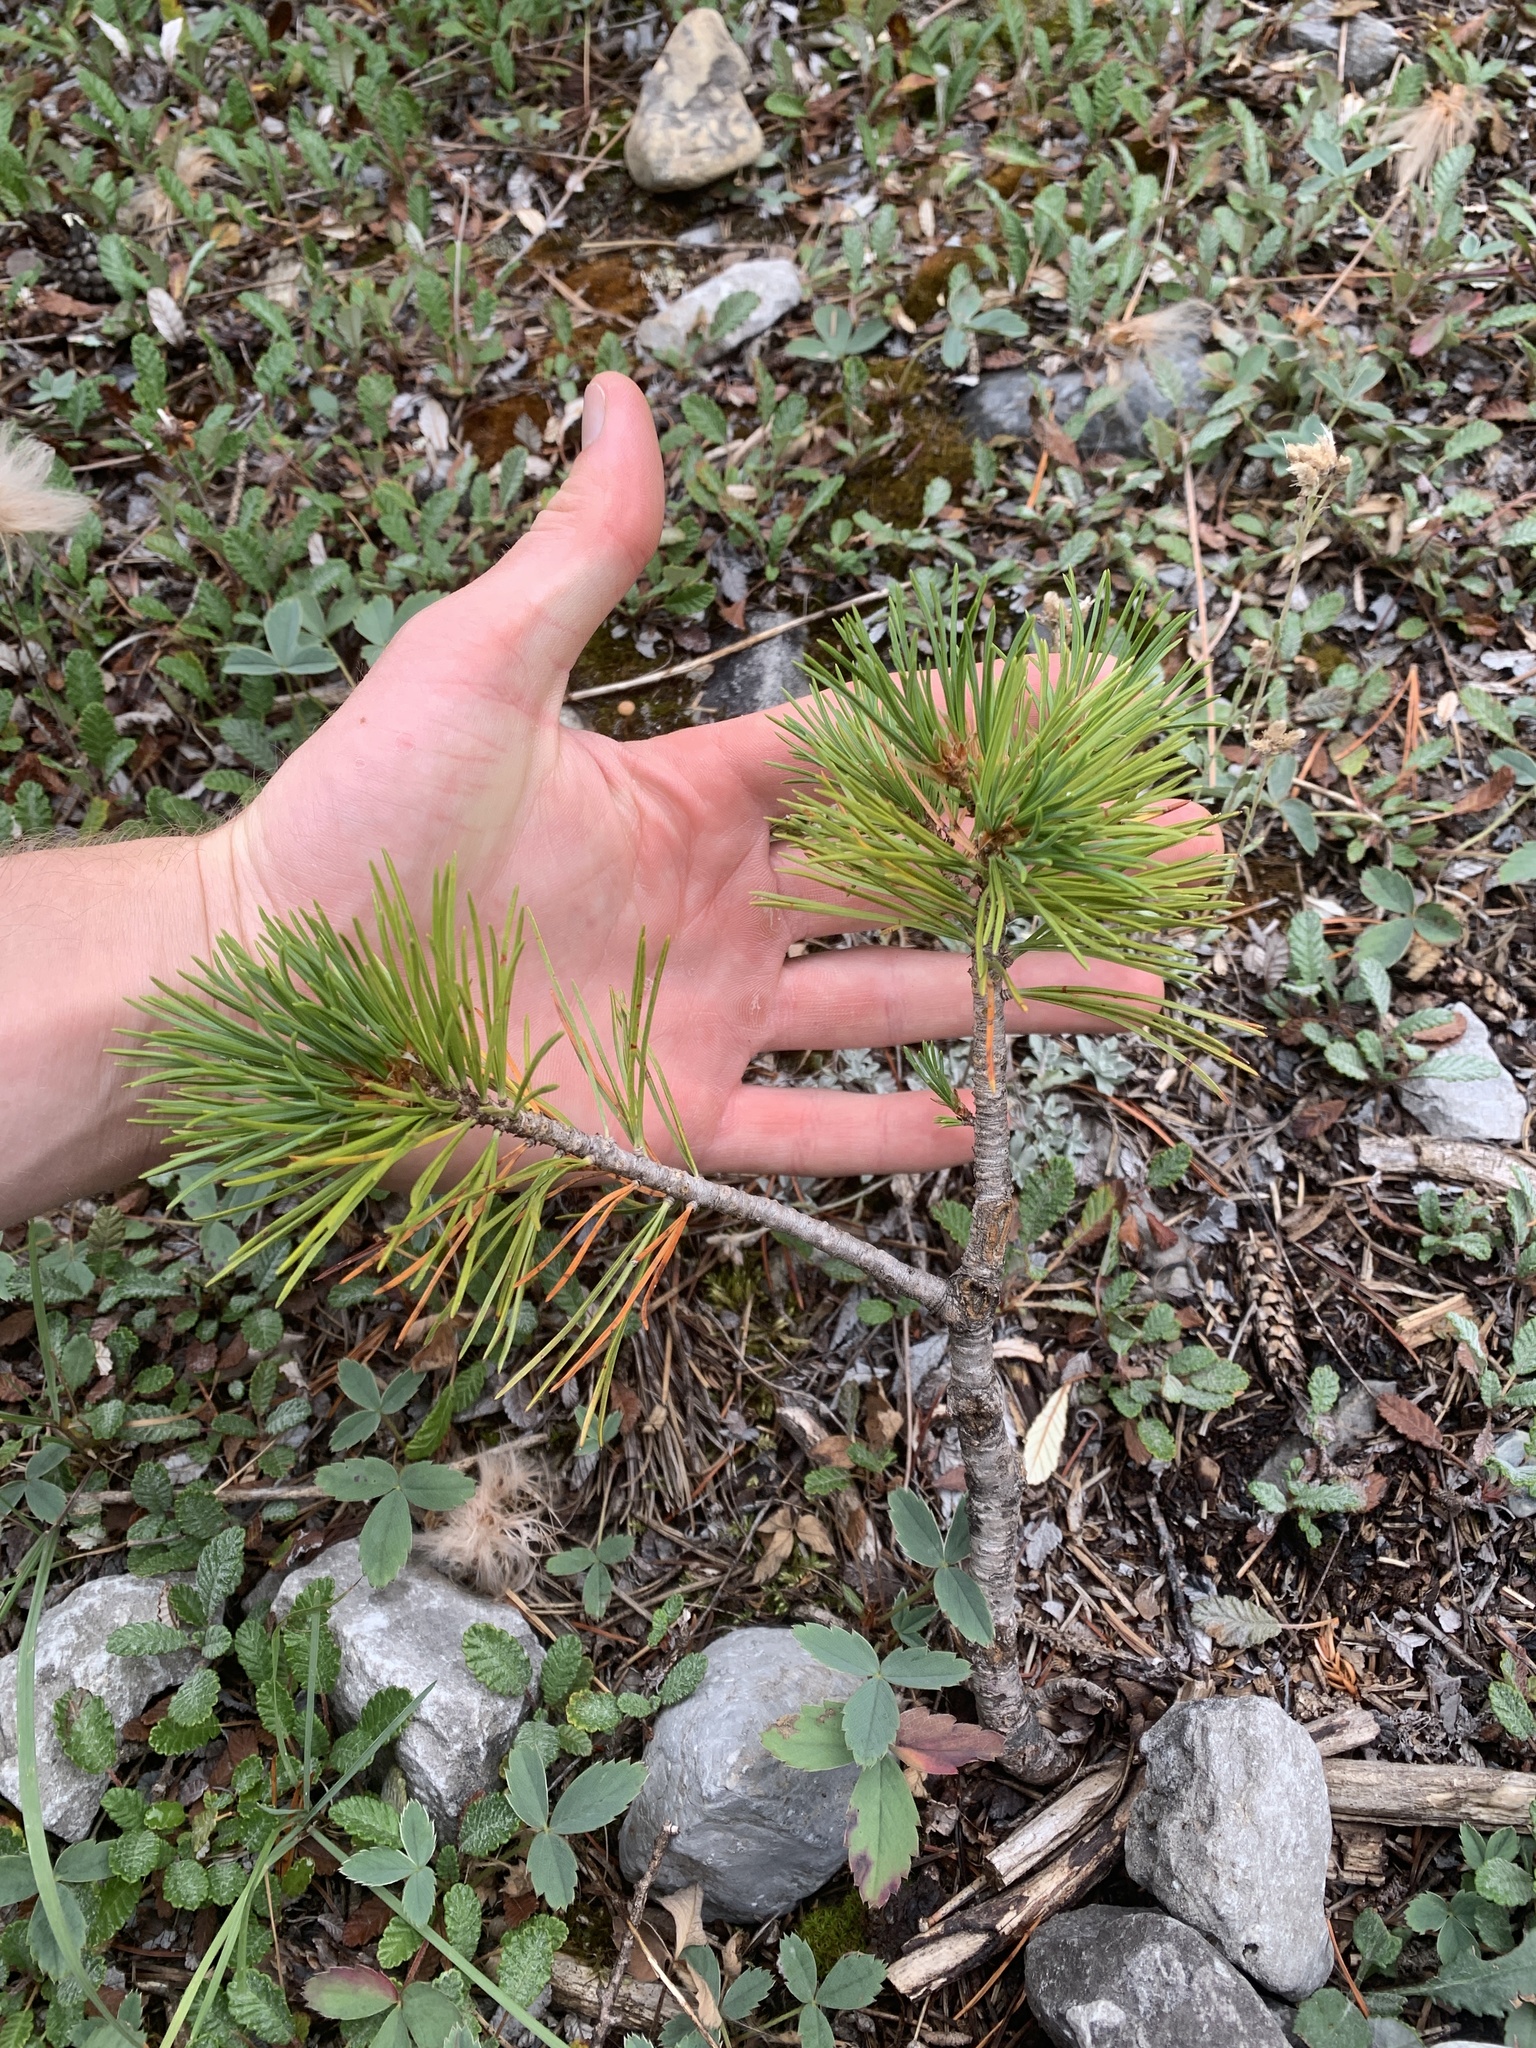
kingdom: Plantae
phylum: Tracheophyta
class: Pinopsida
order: Pinales
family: Pinaceae
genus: Pinus
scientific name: Pinus albicaulis
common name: Whitebark pine
